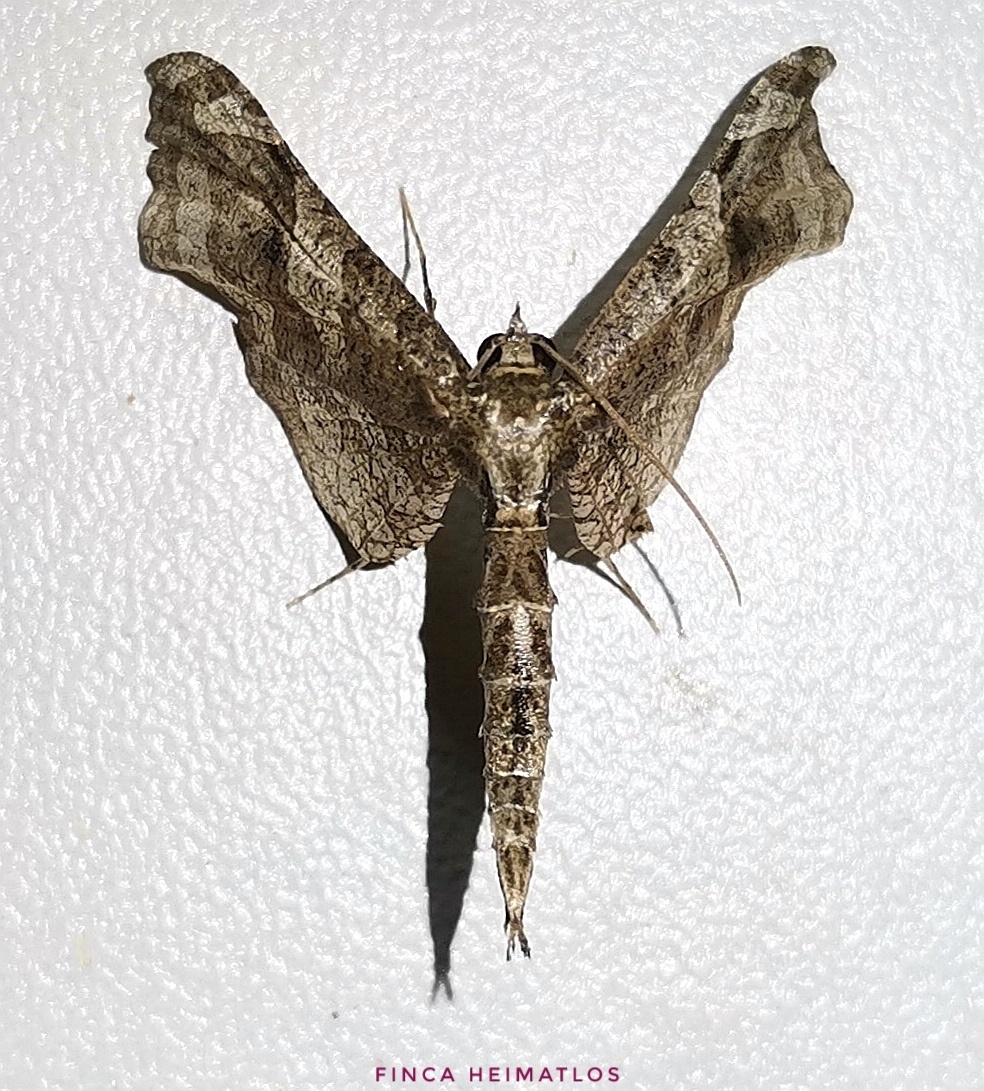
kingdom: Animalia
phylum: Arthropoda
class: Insecta
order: Lepidoptera
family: Thyrididae
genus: Rhodoneura
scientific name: Rhodoneura rhomboidea
